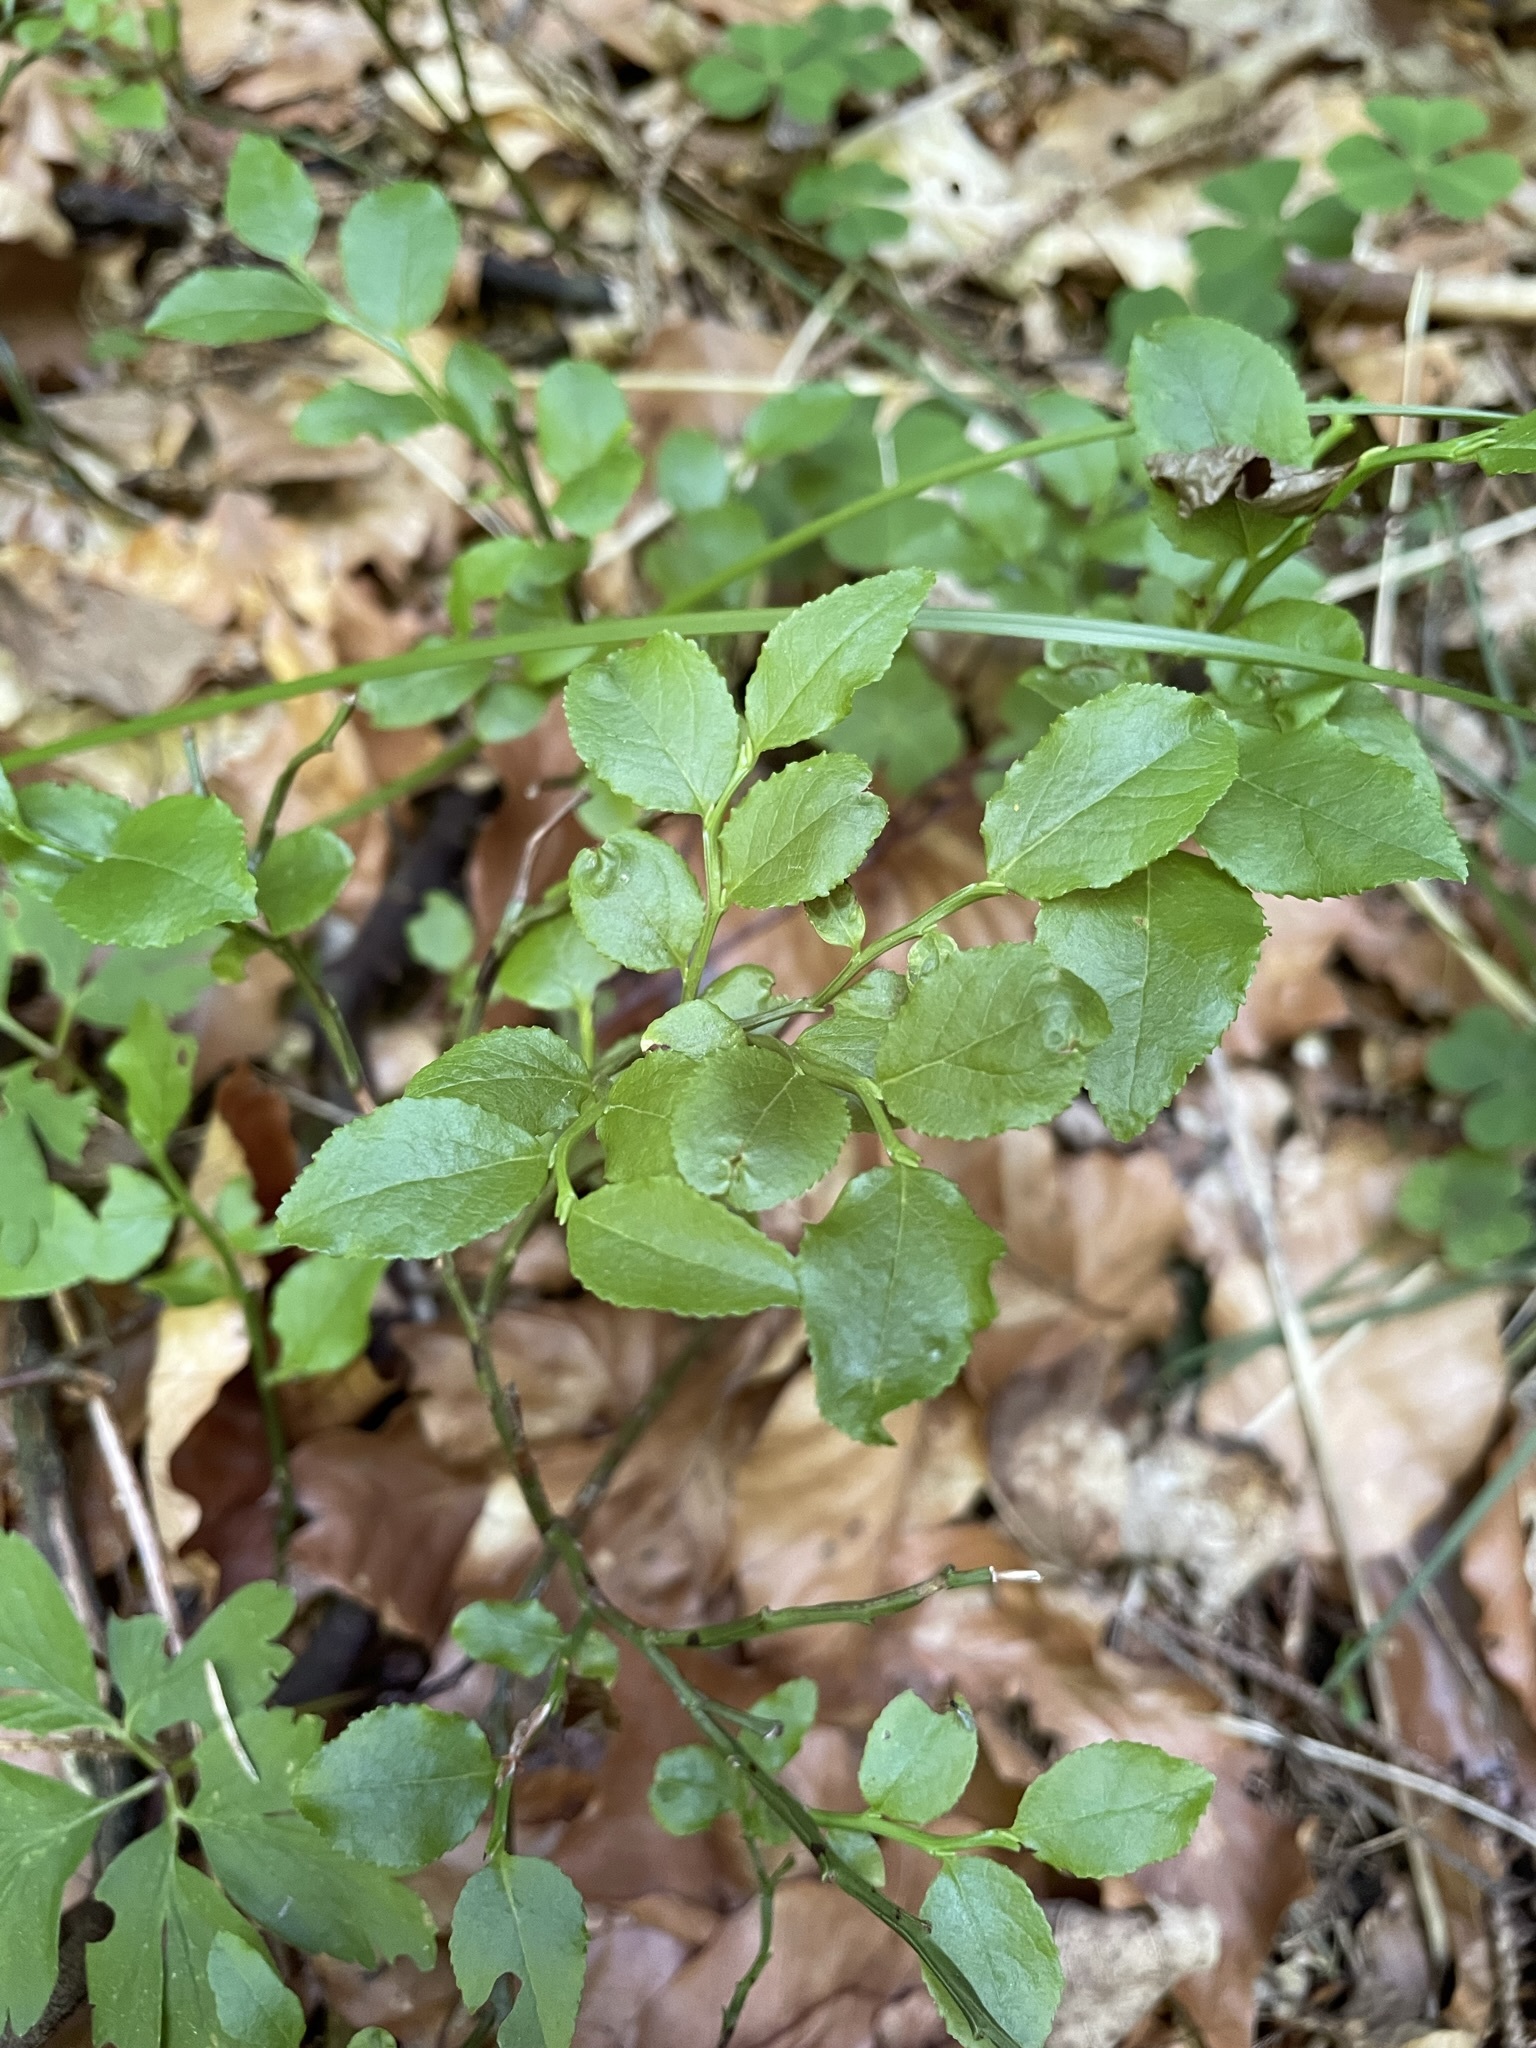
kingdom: Plantae
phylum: Tracheophyta
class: Magnoliopsida
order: Ericales
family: Ericaceae
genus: Vaccinium
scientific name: Vaccinium myrtillus
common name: Bilberry
